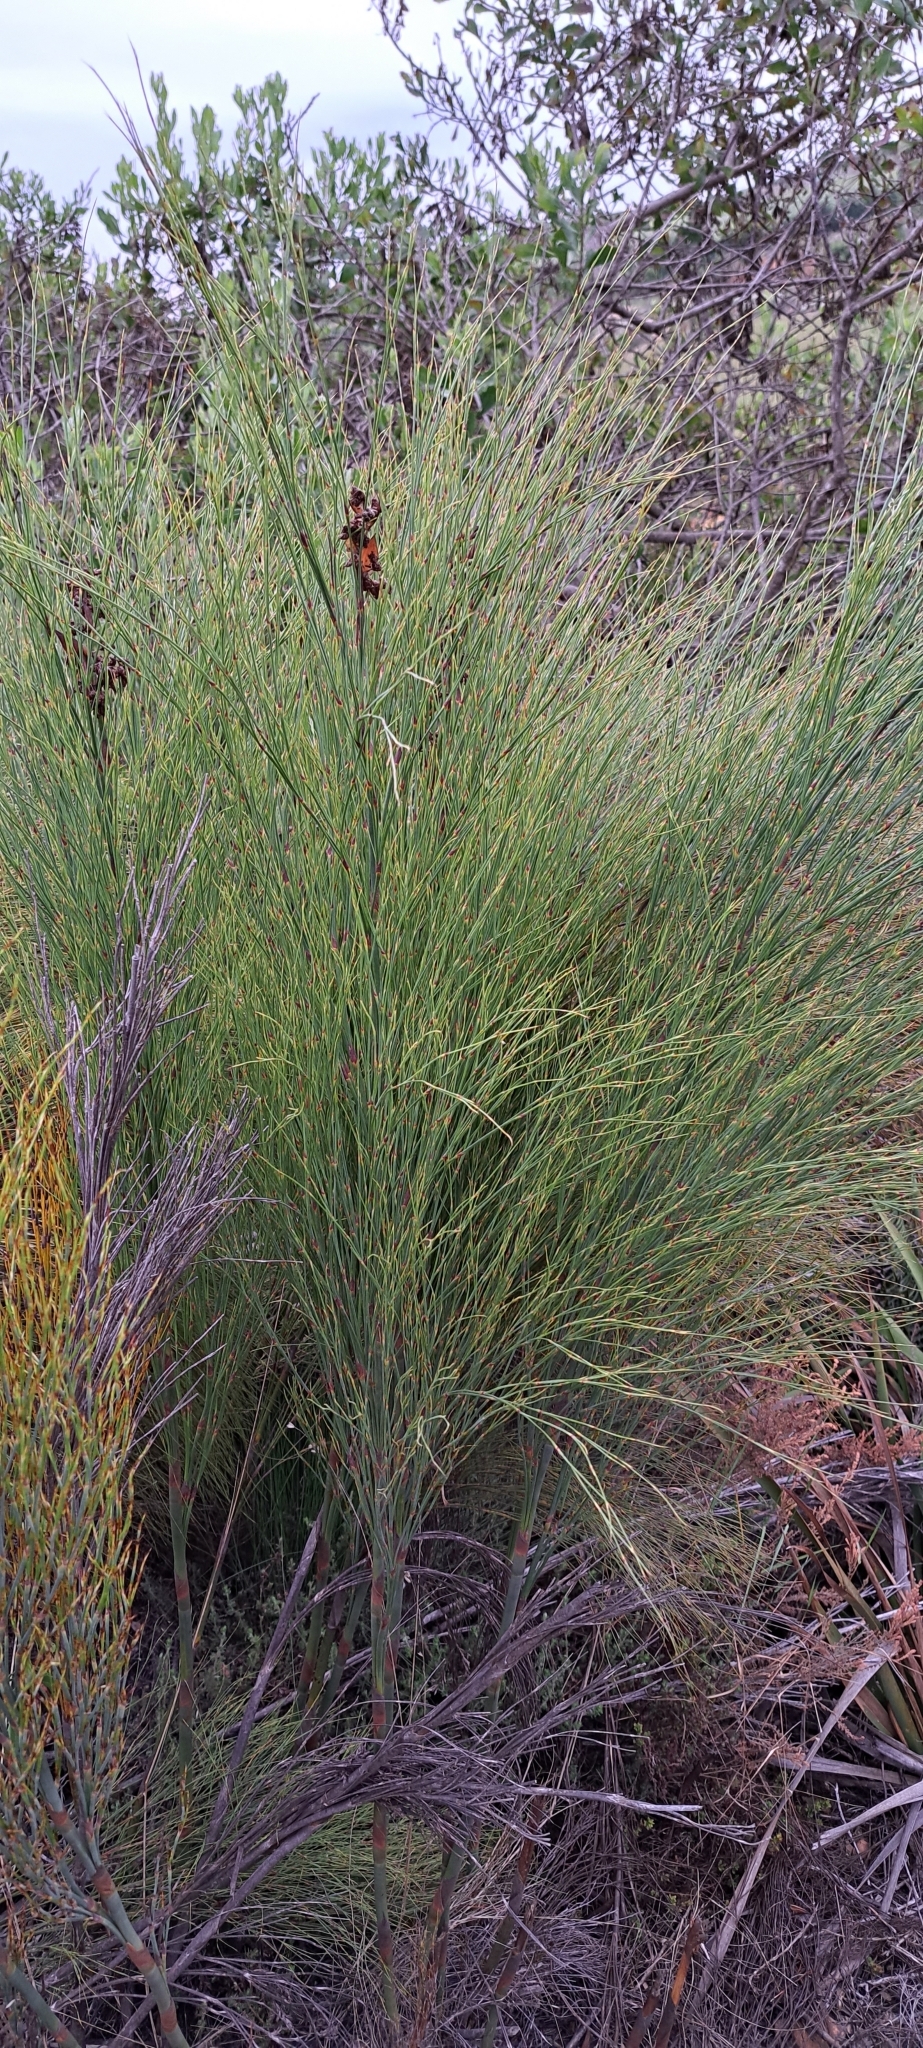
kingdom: Plantae
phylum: Tracheophyta
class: Liliopsida
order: Poales
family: Restionaceae
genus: Cannomois
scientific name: Cannomois virgata
